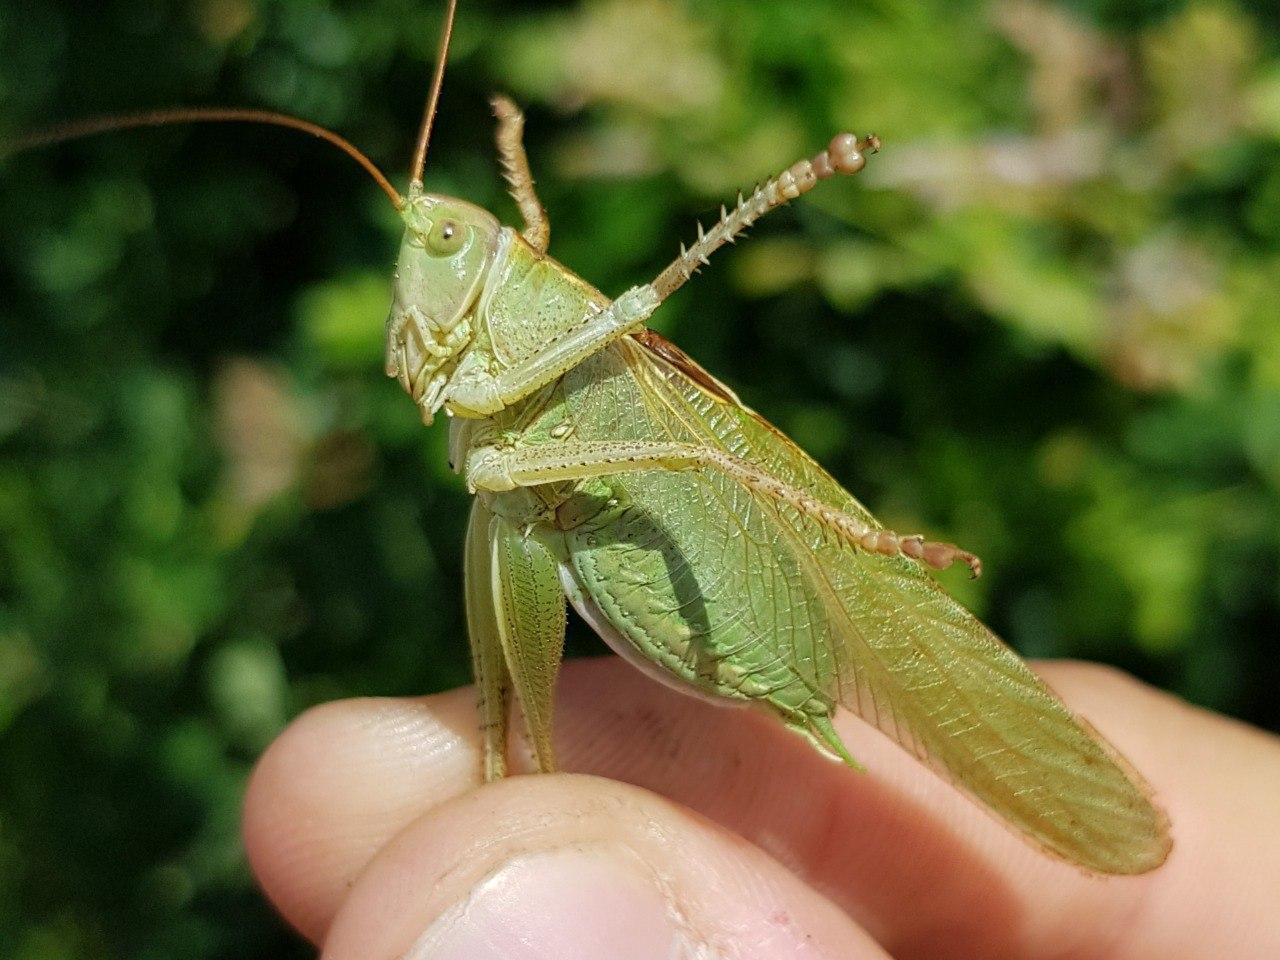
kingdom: Animalia
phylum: Arthropoda
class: Insecta
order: Orthoptera
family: Tettigoniidae
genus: Tettigonia
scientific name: Tettigonia viridissima
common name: Great green bush-cricket
